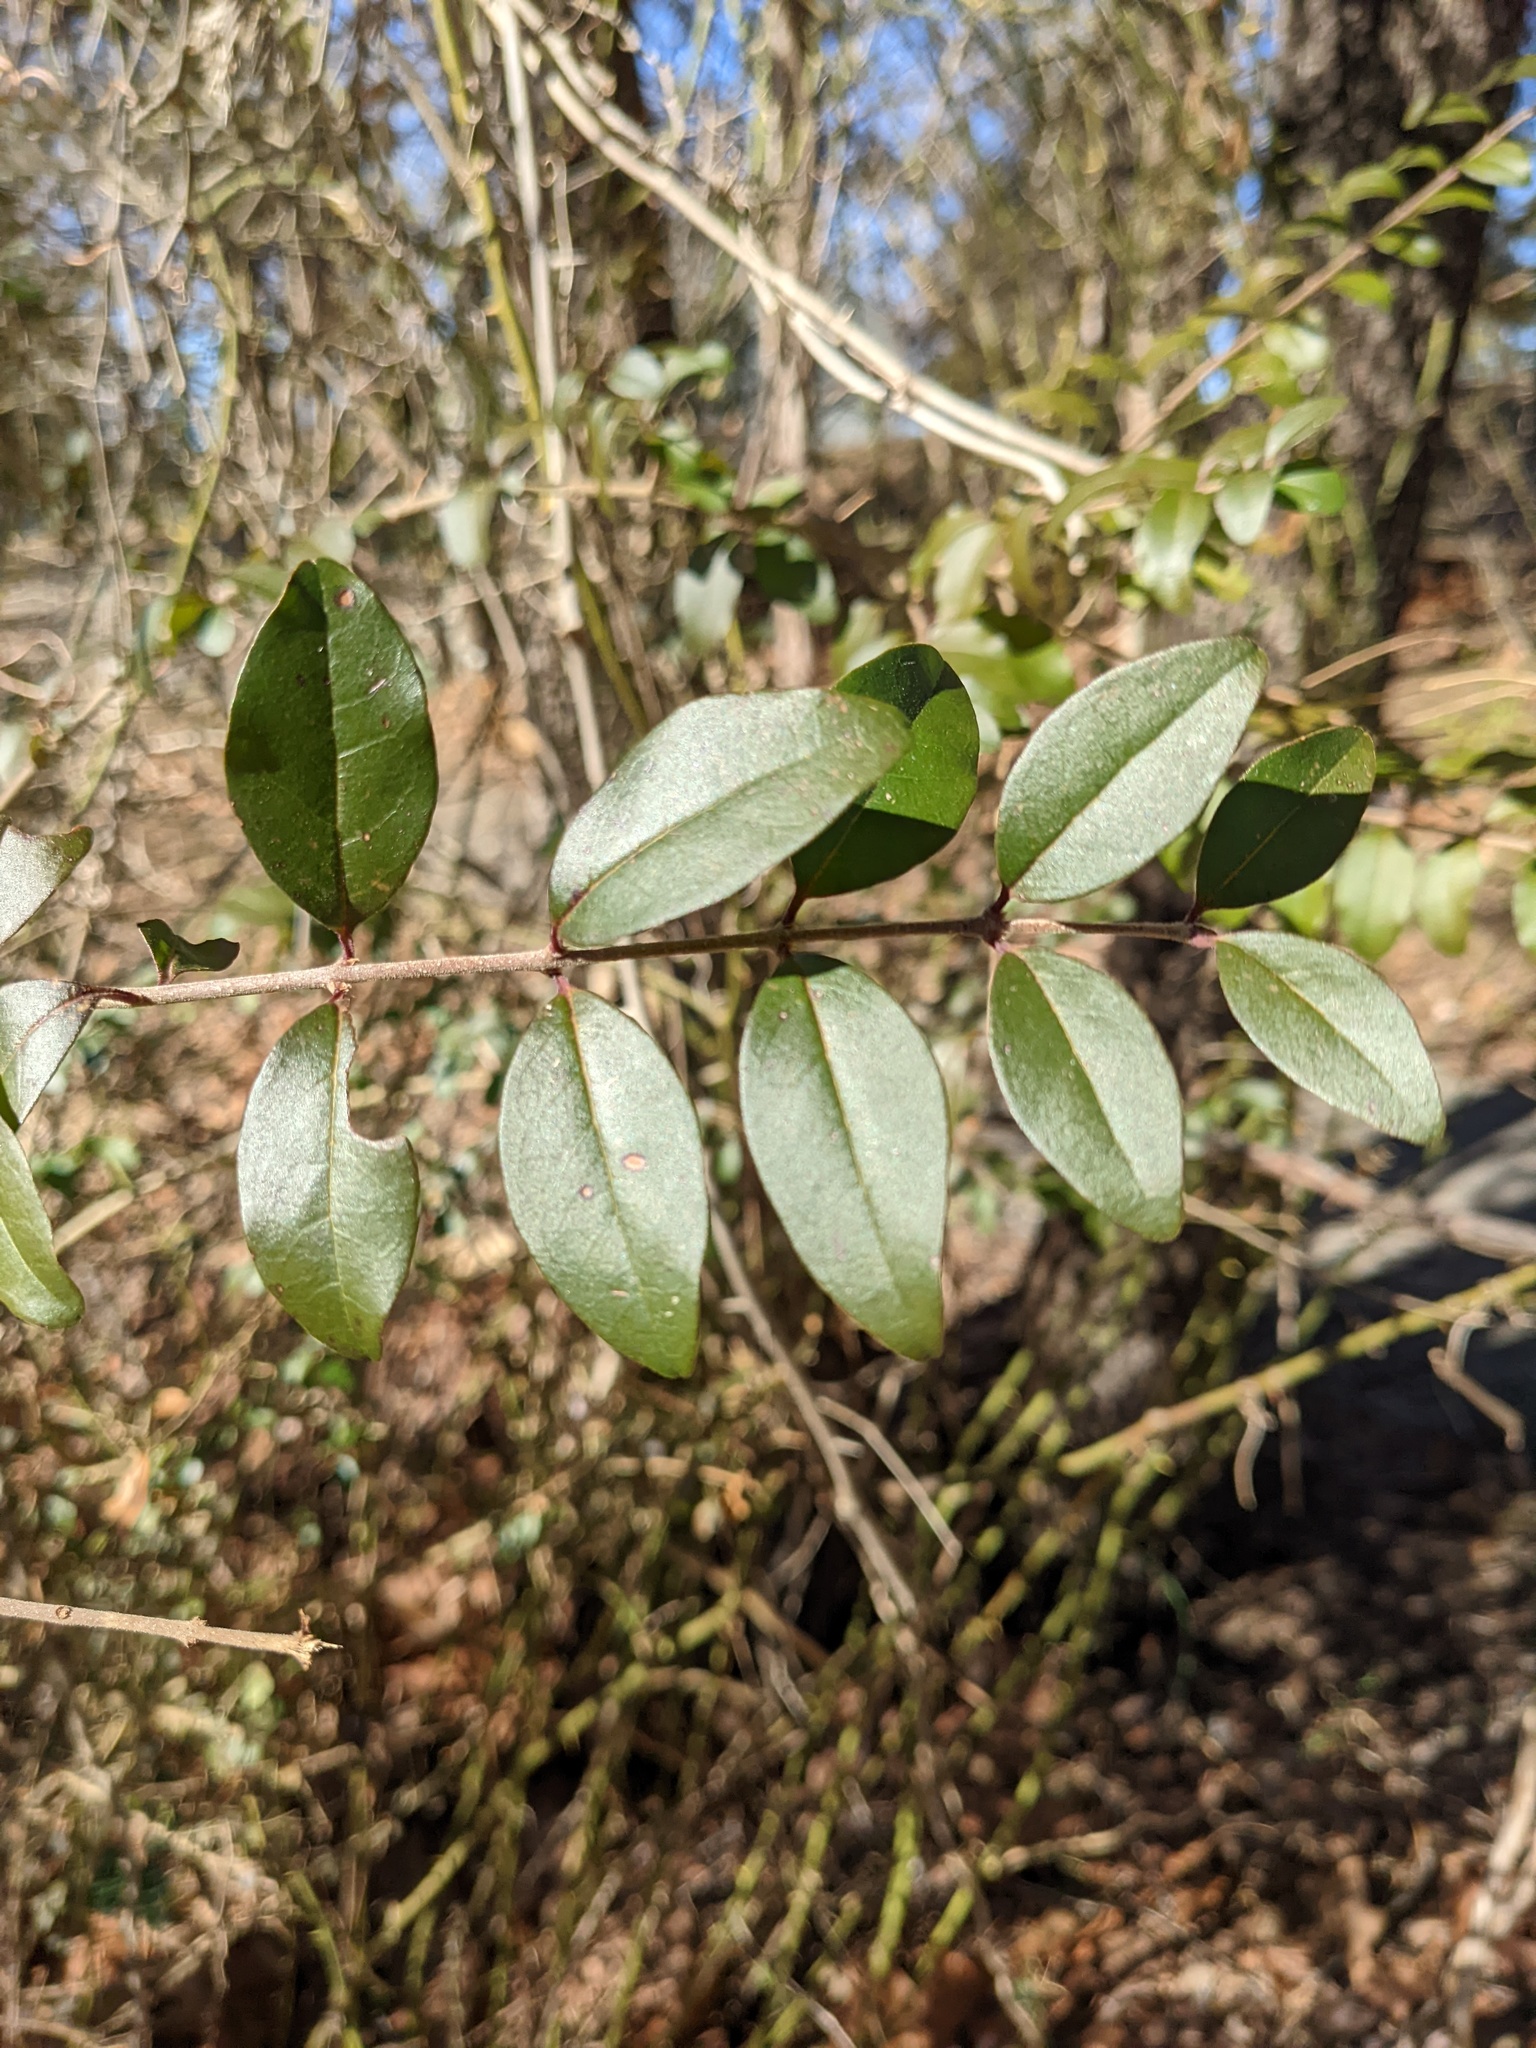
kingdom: Plantae
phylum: Tracheophyta
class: Magnoliopsida
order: Lamiales
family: Oleaceae
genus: Ligustrum
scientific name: Ligustrum sinense
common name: Chinese privet
